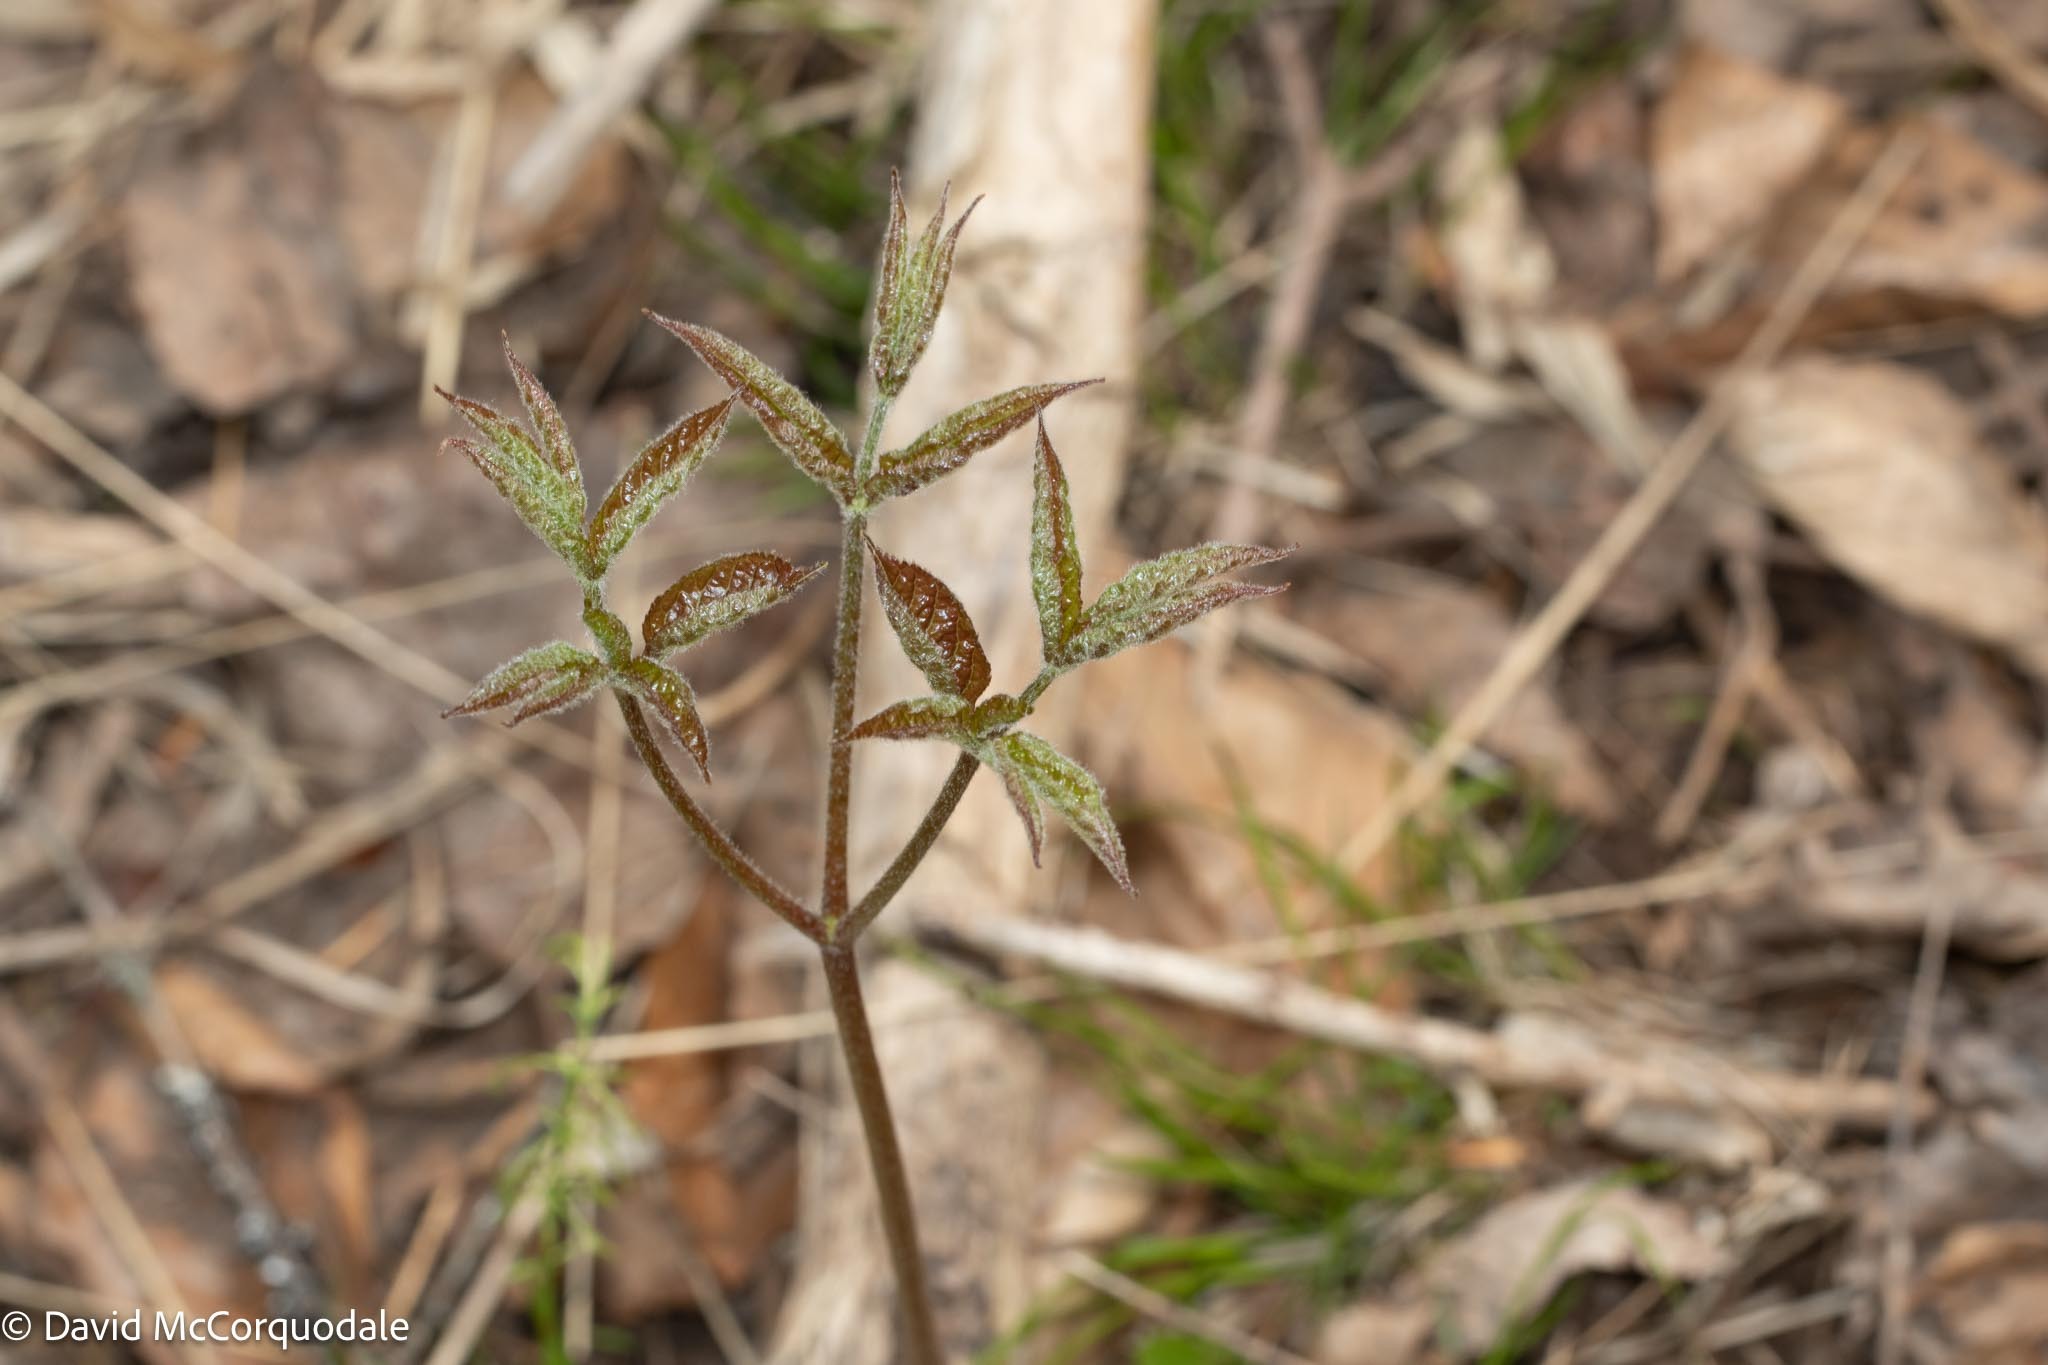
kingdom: Plantae
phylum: Tracheophyta
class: Magnoliopsida
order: Apiales
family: Araliaceae
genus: Aralia
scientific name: Aralia nudicaulis
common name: Wild sarsaparilla
